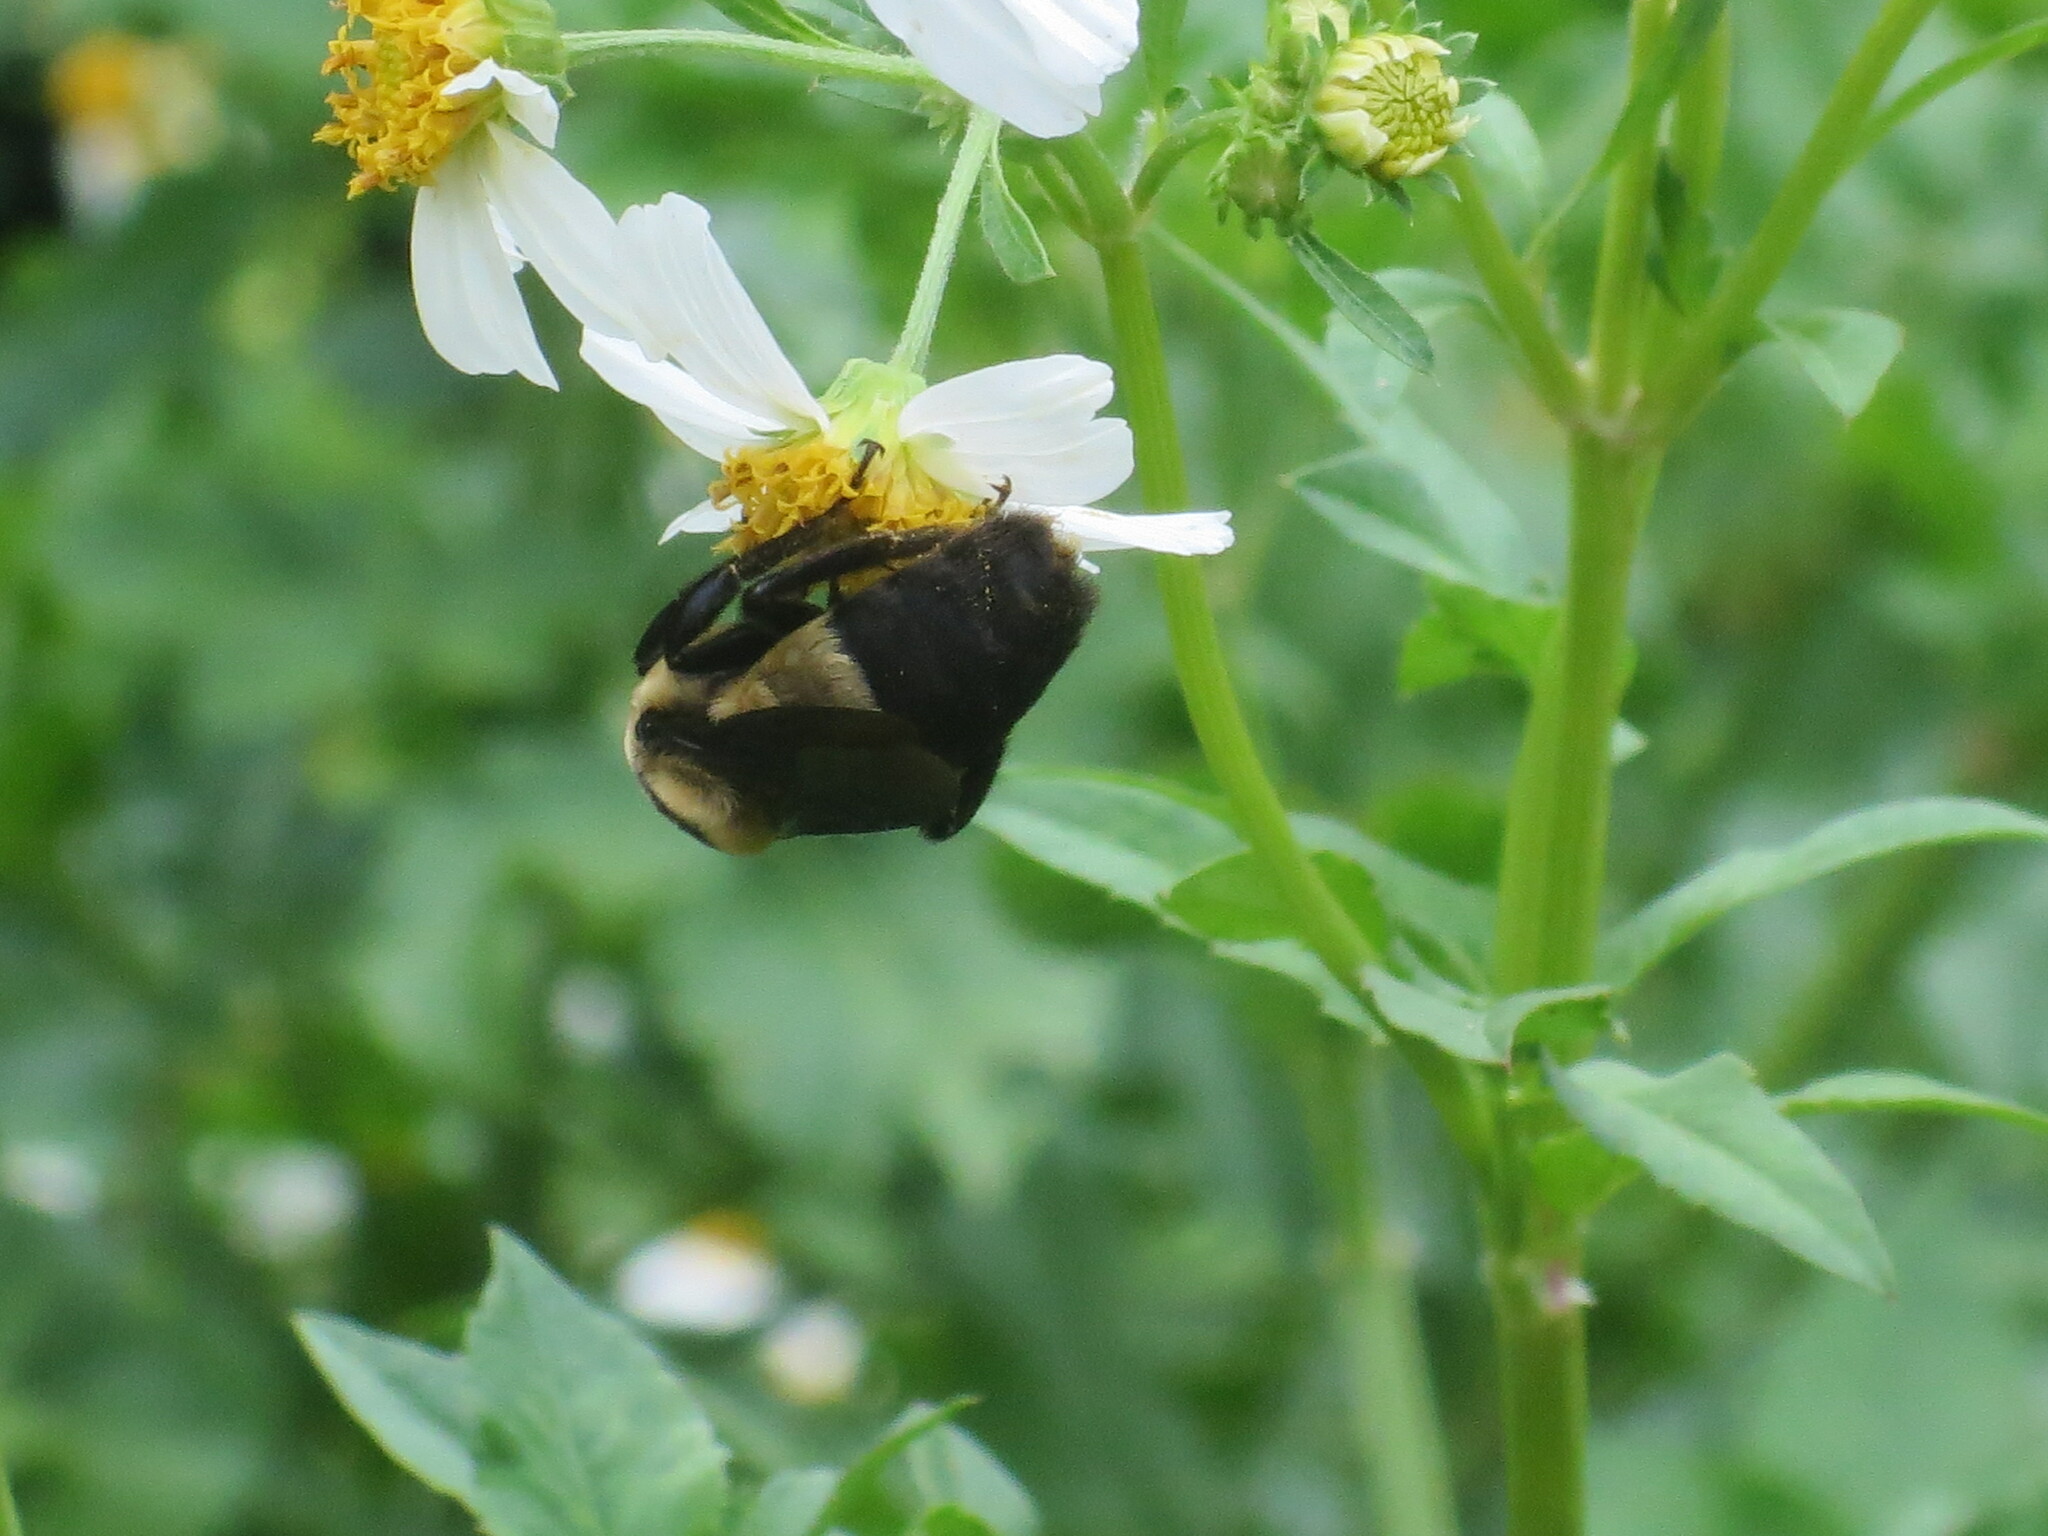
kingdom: Animalia
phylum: Arthropoda
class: Insecta
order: Hymenoptera
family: Apidae
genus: Bombus
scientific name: Bombus fraternus
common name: Southern plains bumble bee
